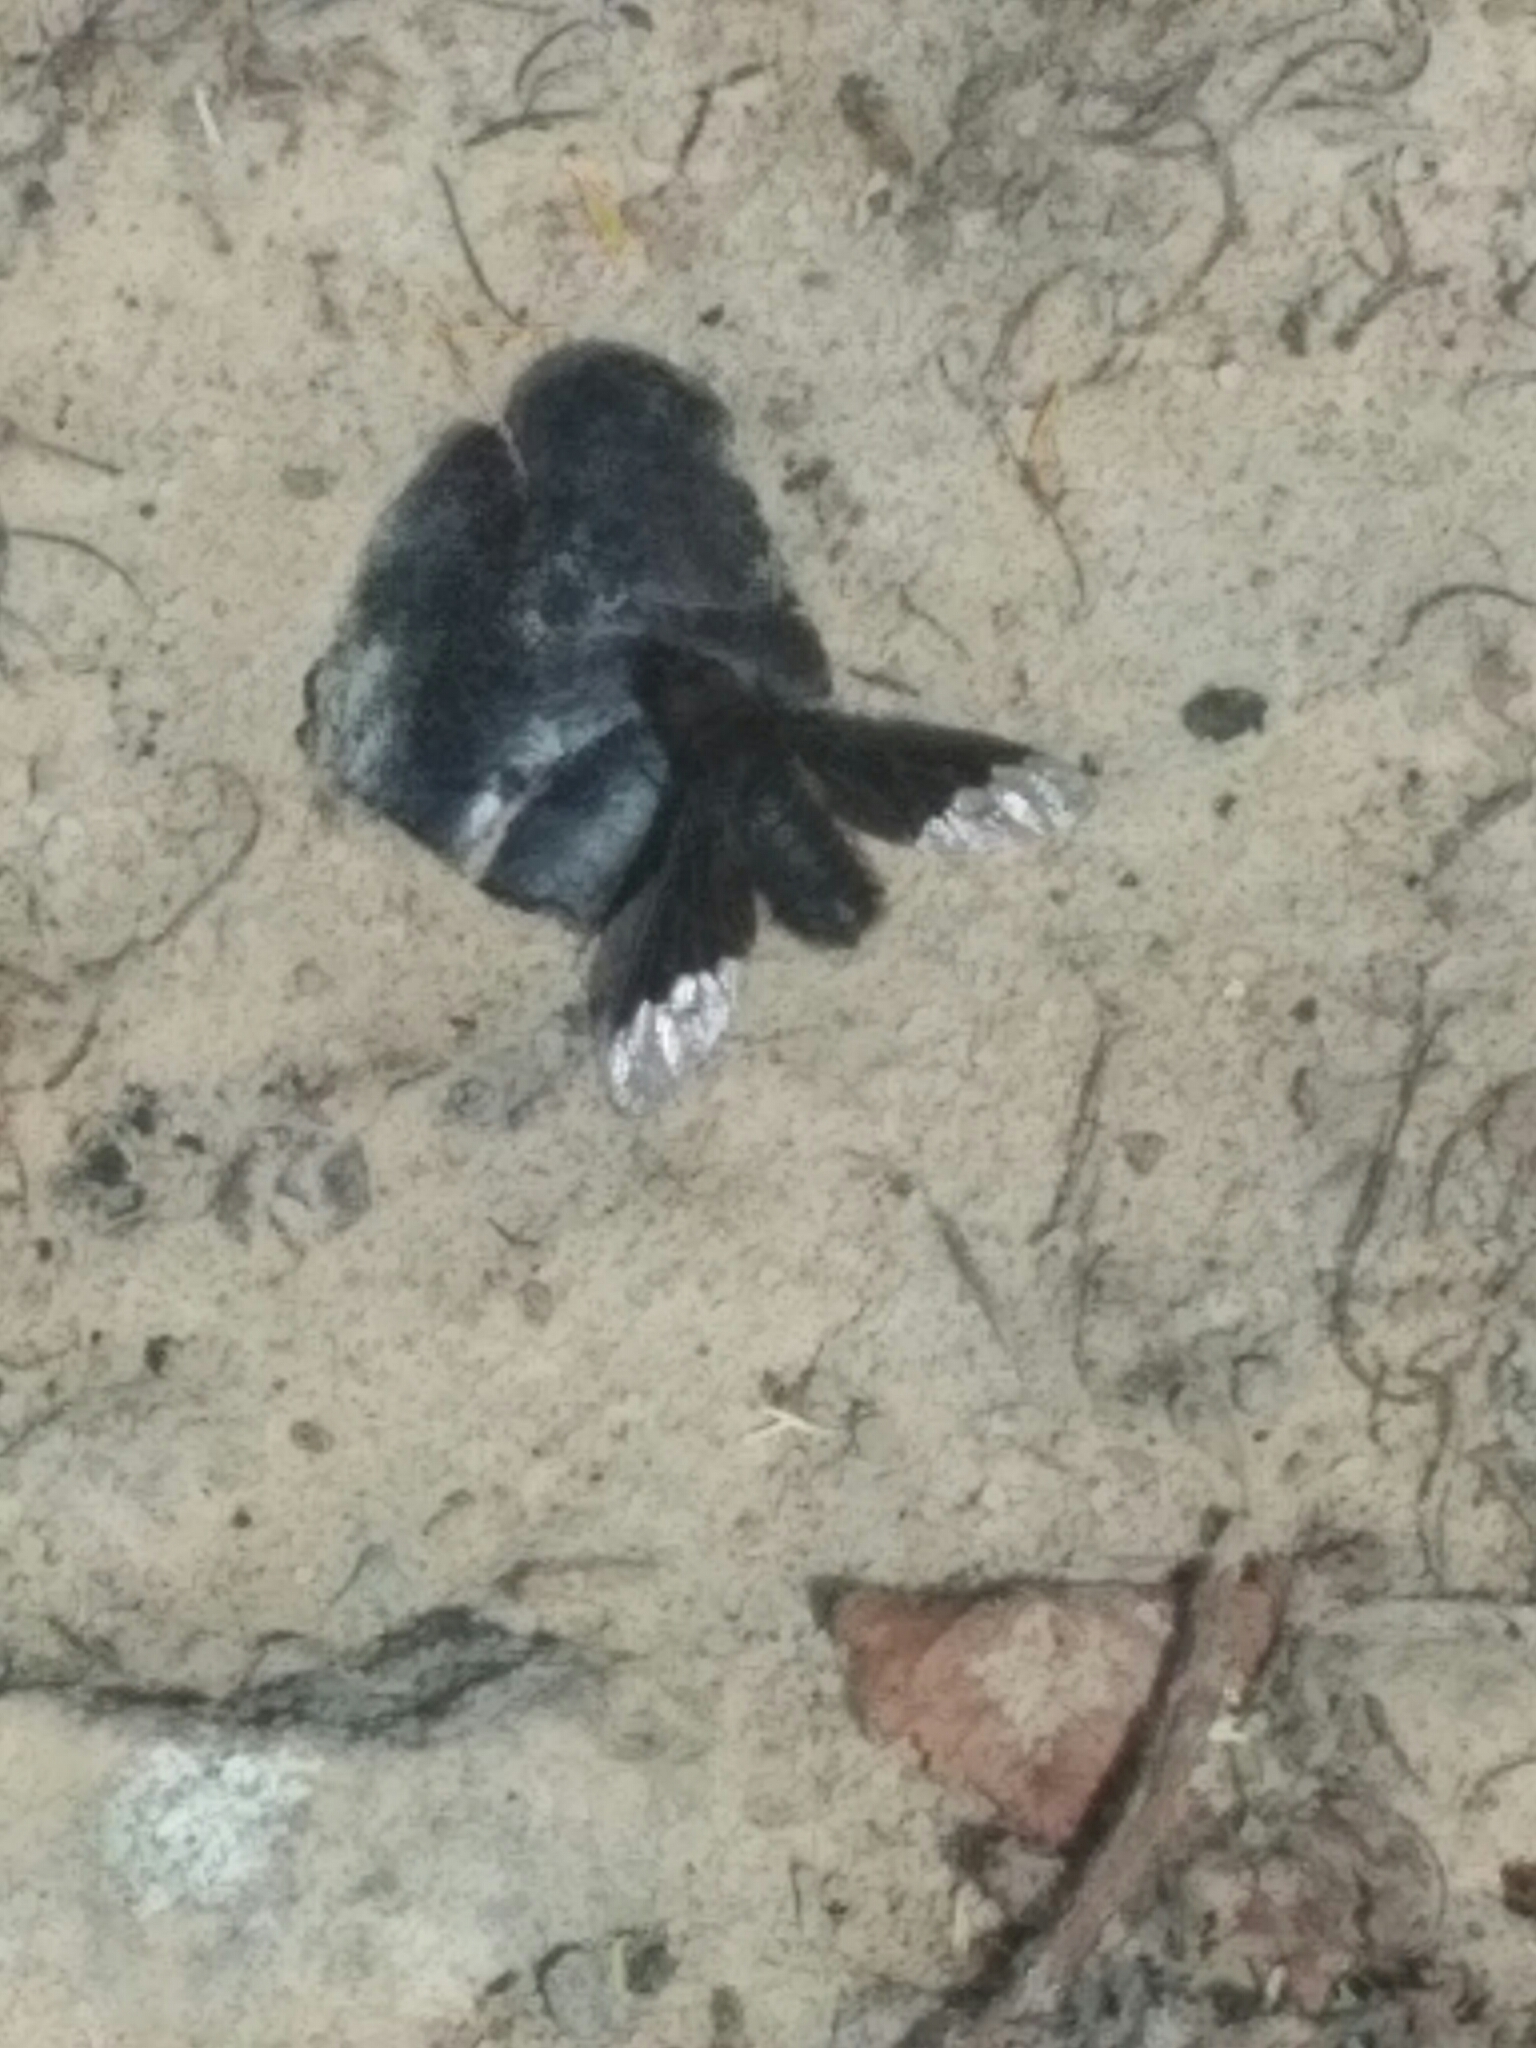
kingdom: Animalia
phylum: Arthropoda
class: Insecta
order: Diptera
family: Bombyliidae
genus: Hemipenthes
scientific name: Hemipenthes morio
